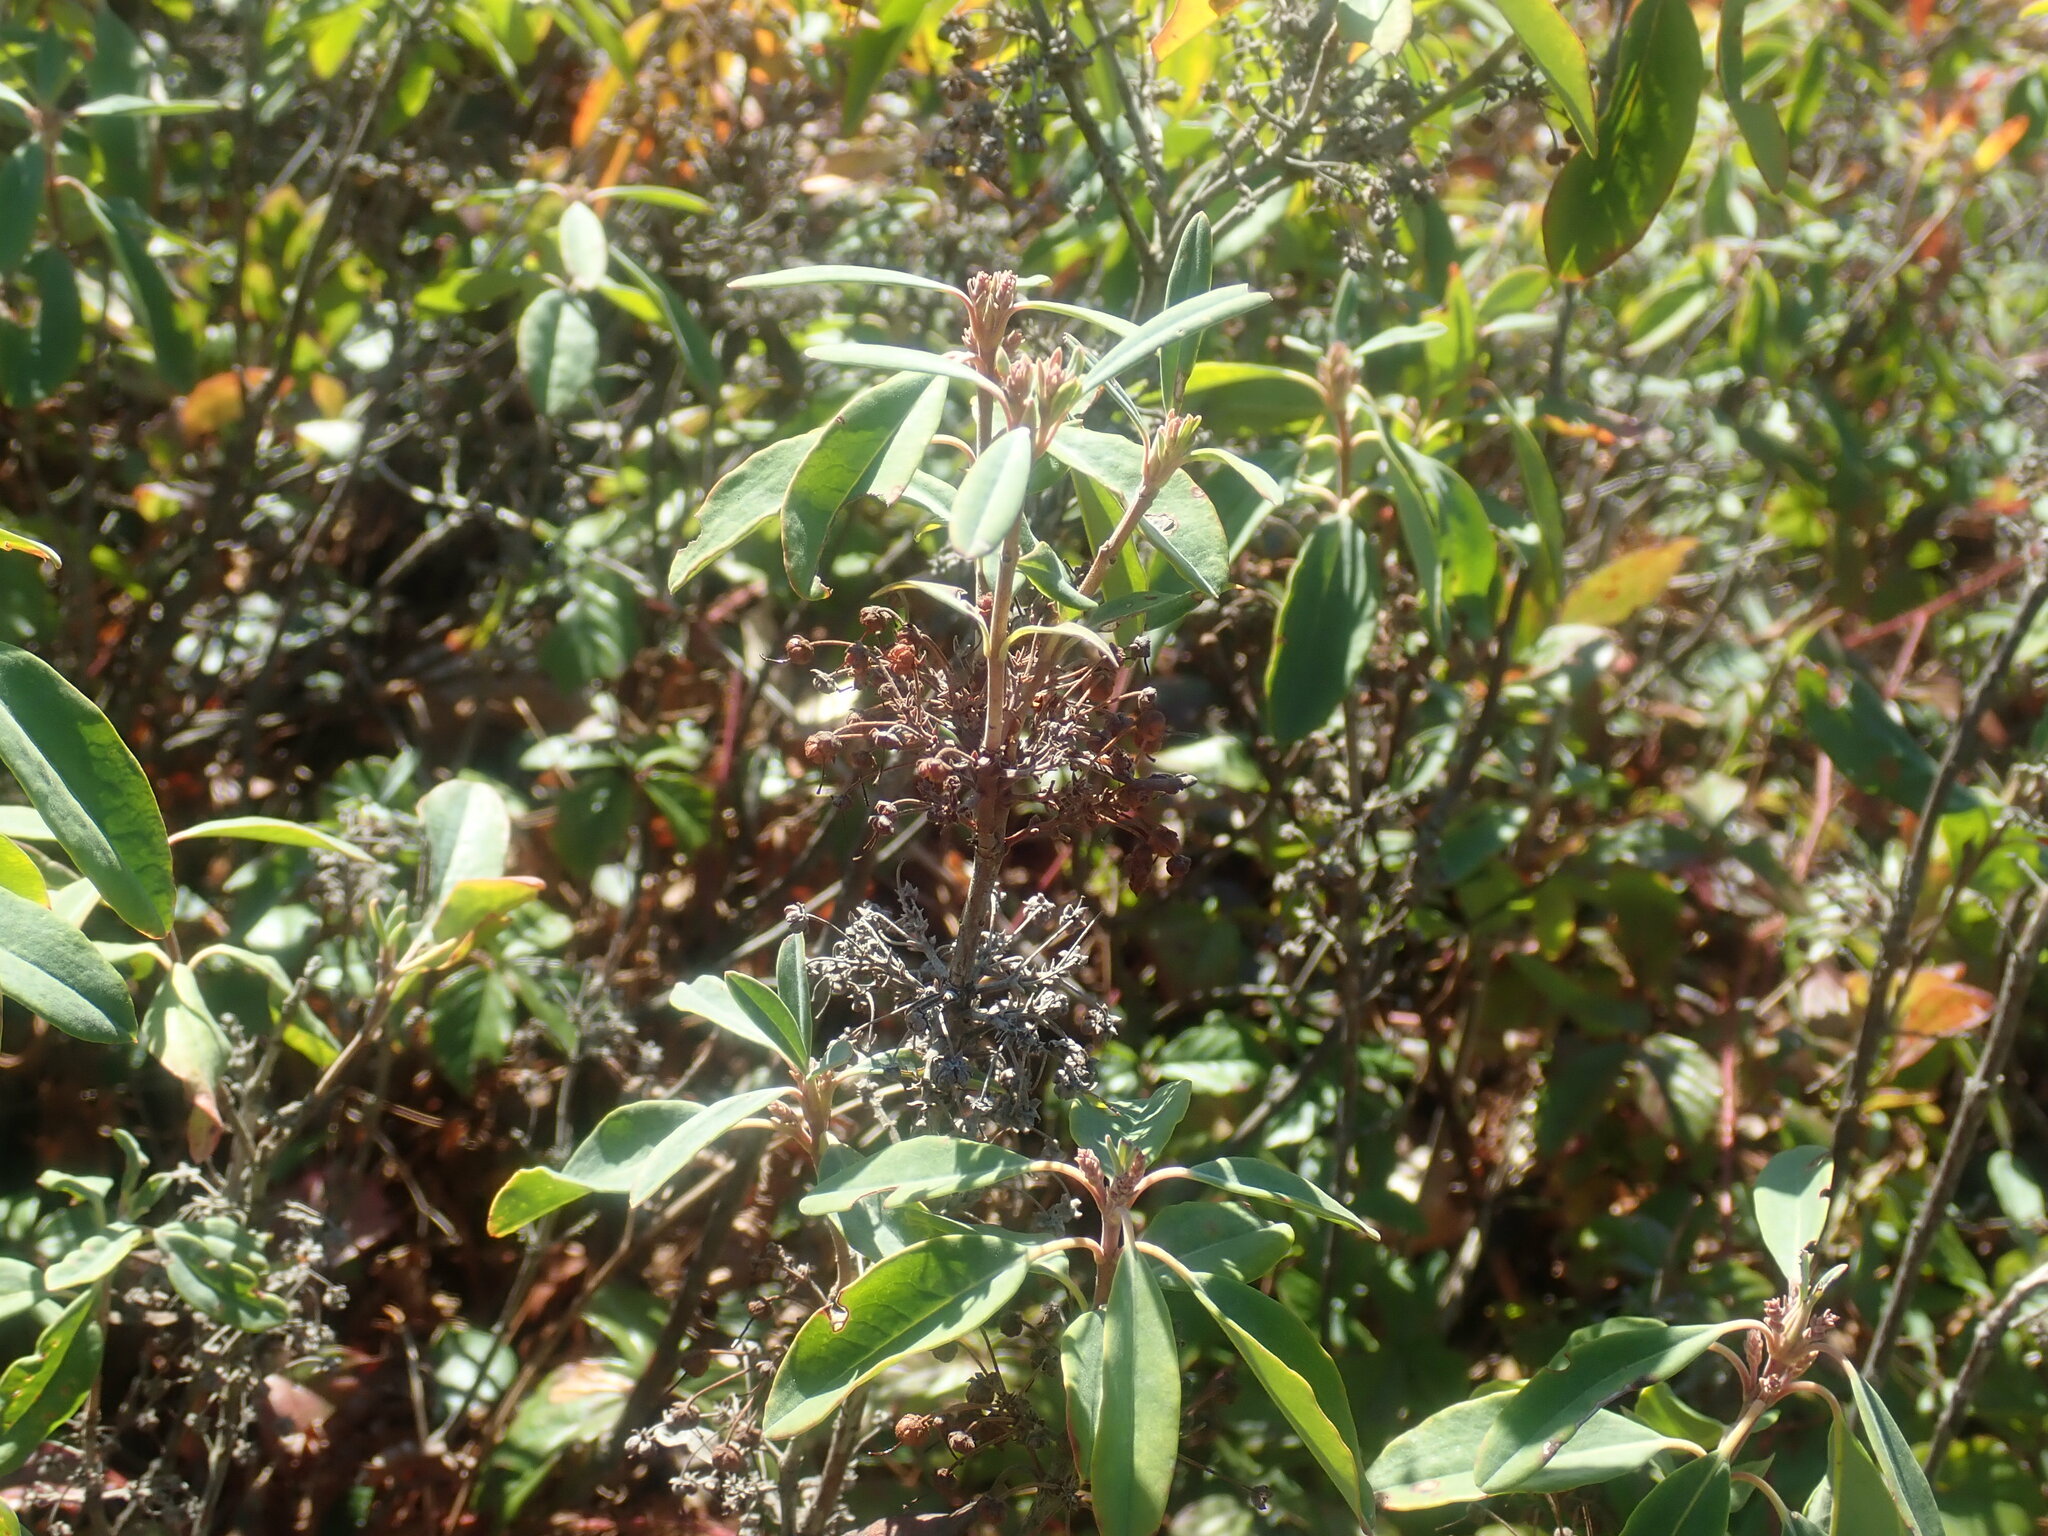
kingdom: Plantae
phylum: Tracheophyta
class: Magnoliopsida
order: Ericales
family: Ericaceae
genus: Kalmia
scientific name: Kalmia angustifolia
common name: Sheep-laurel
